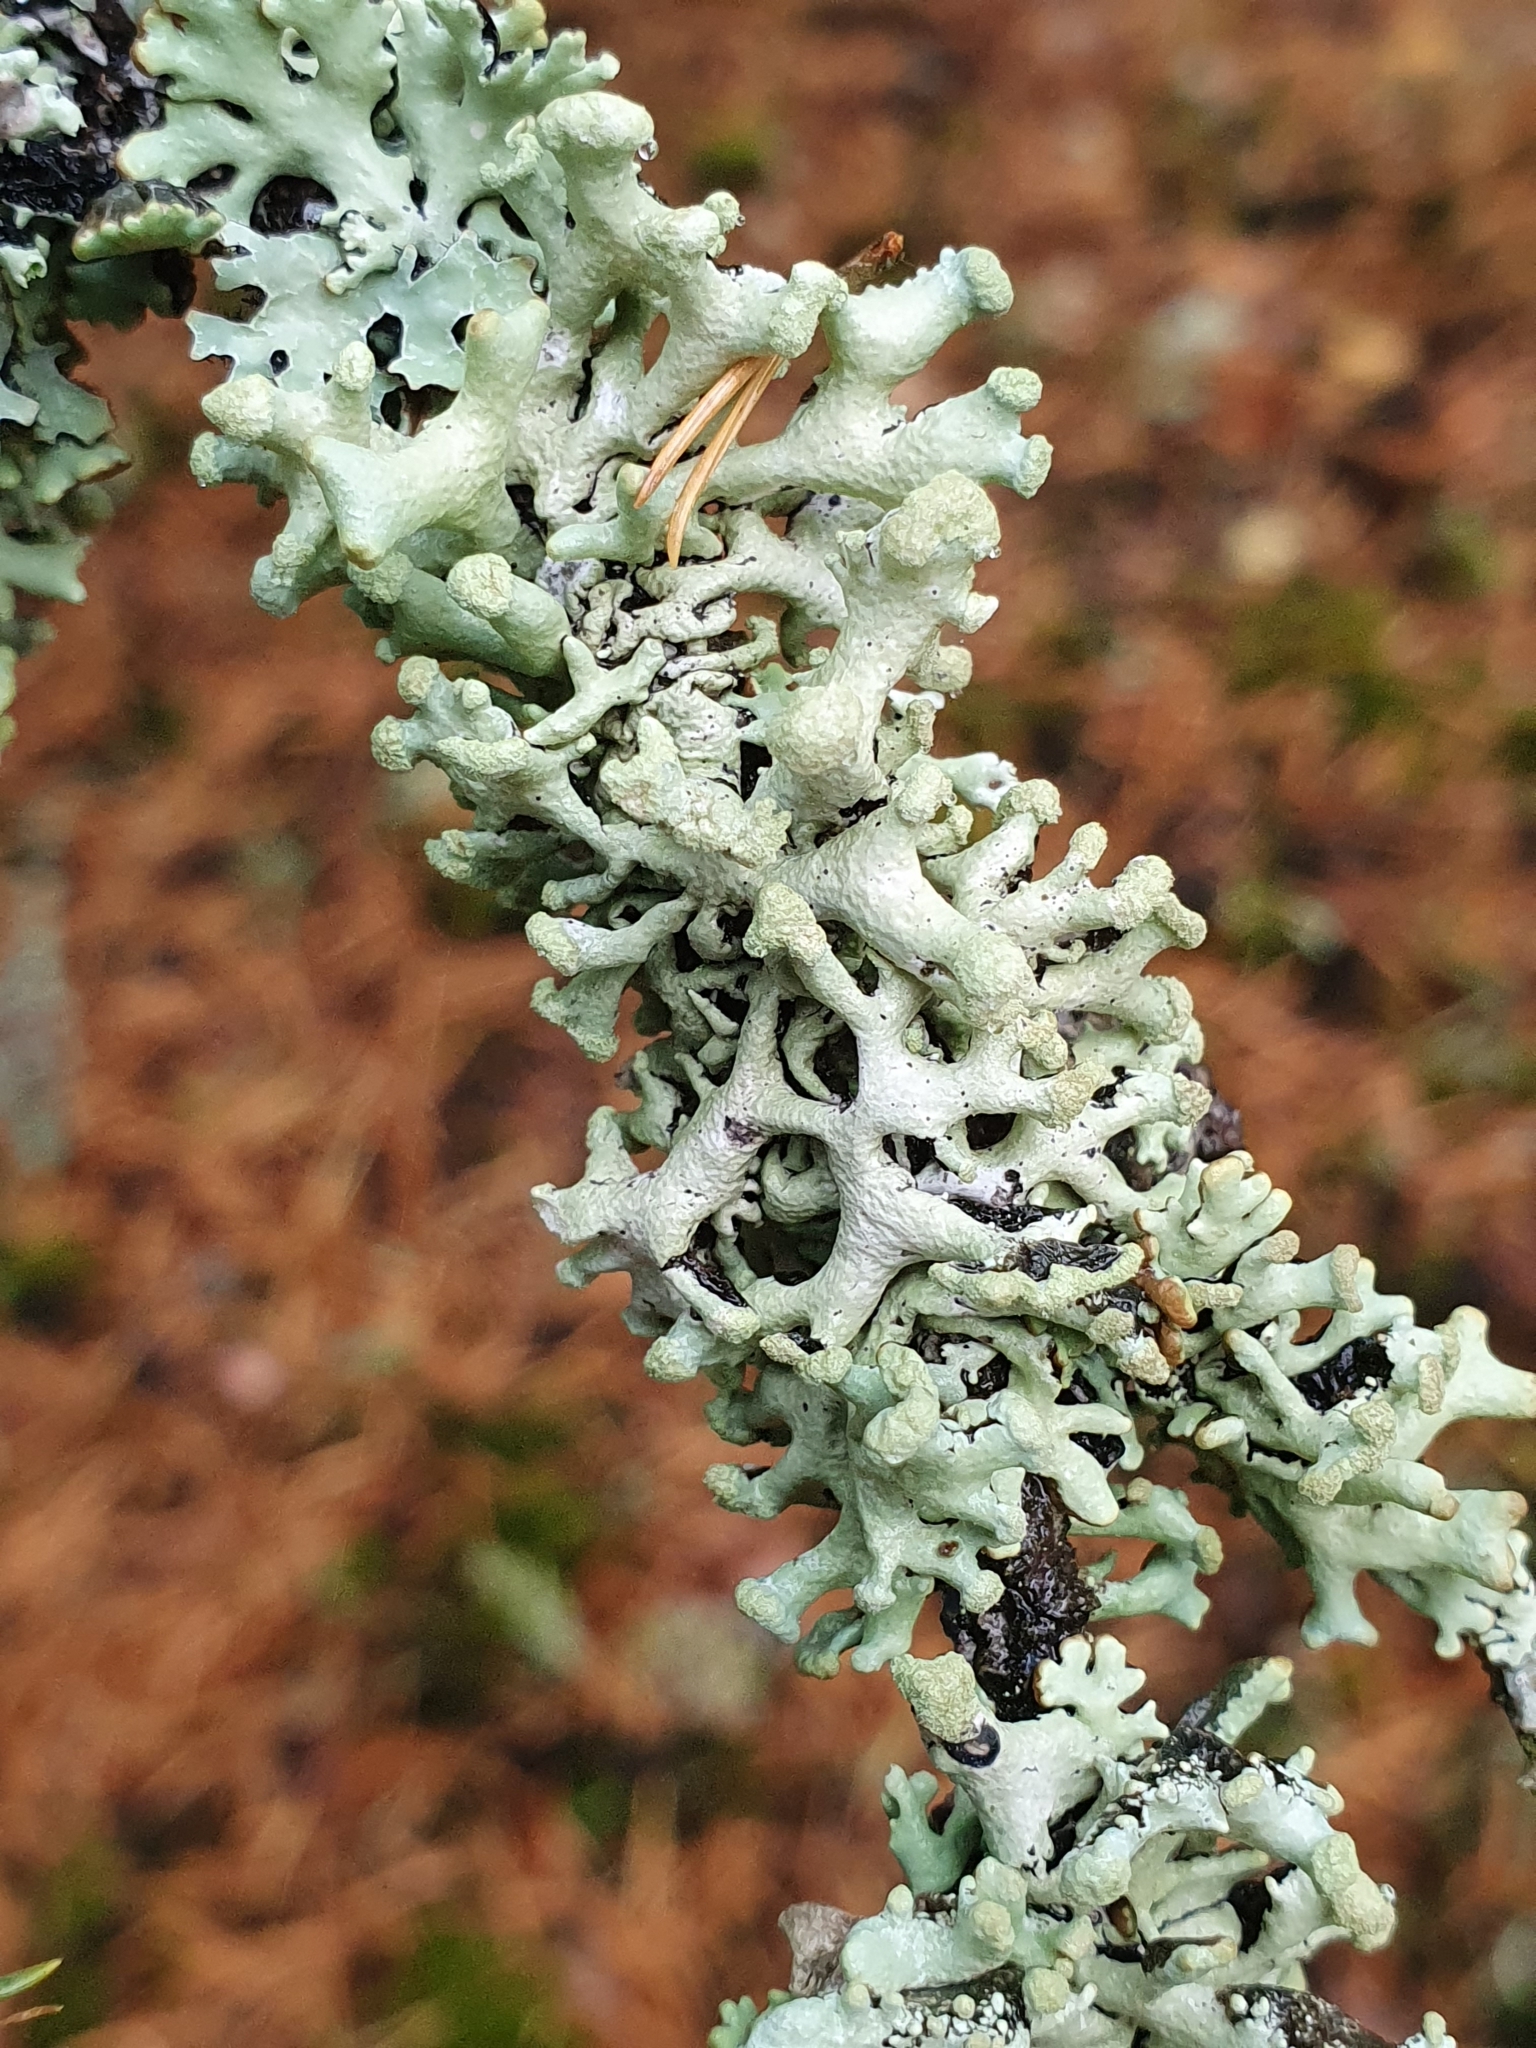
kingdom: Fungi
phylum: Ascomycota
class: Lecanoromycetes
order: Lecanorales
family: Parmeliaceae
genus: Hypogymnia
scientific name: Hypogymnia tubulosa
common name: Powder-headed tube lichen
